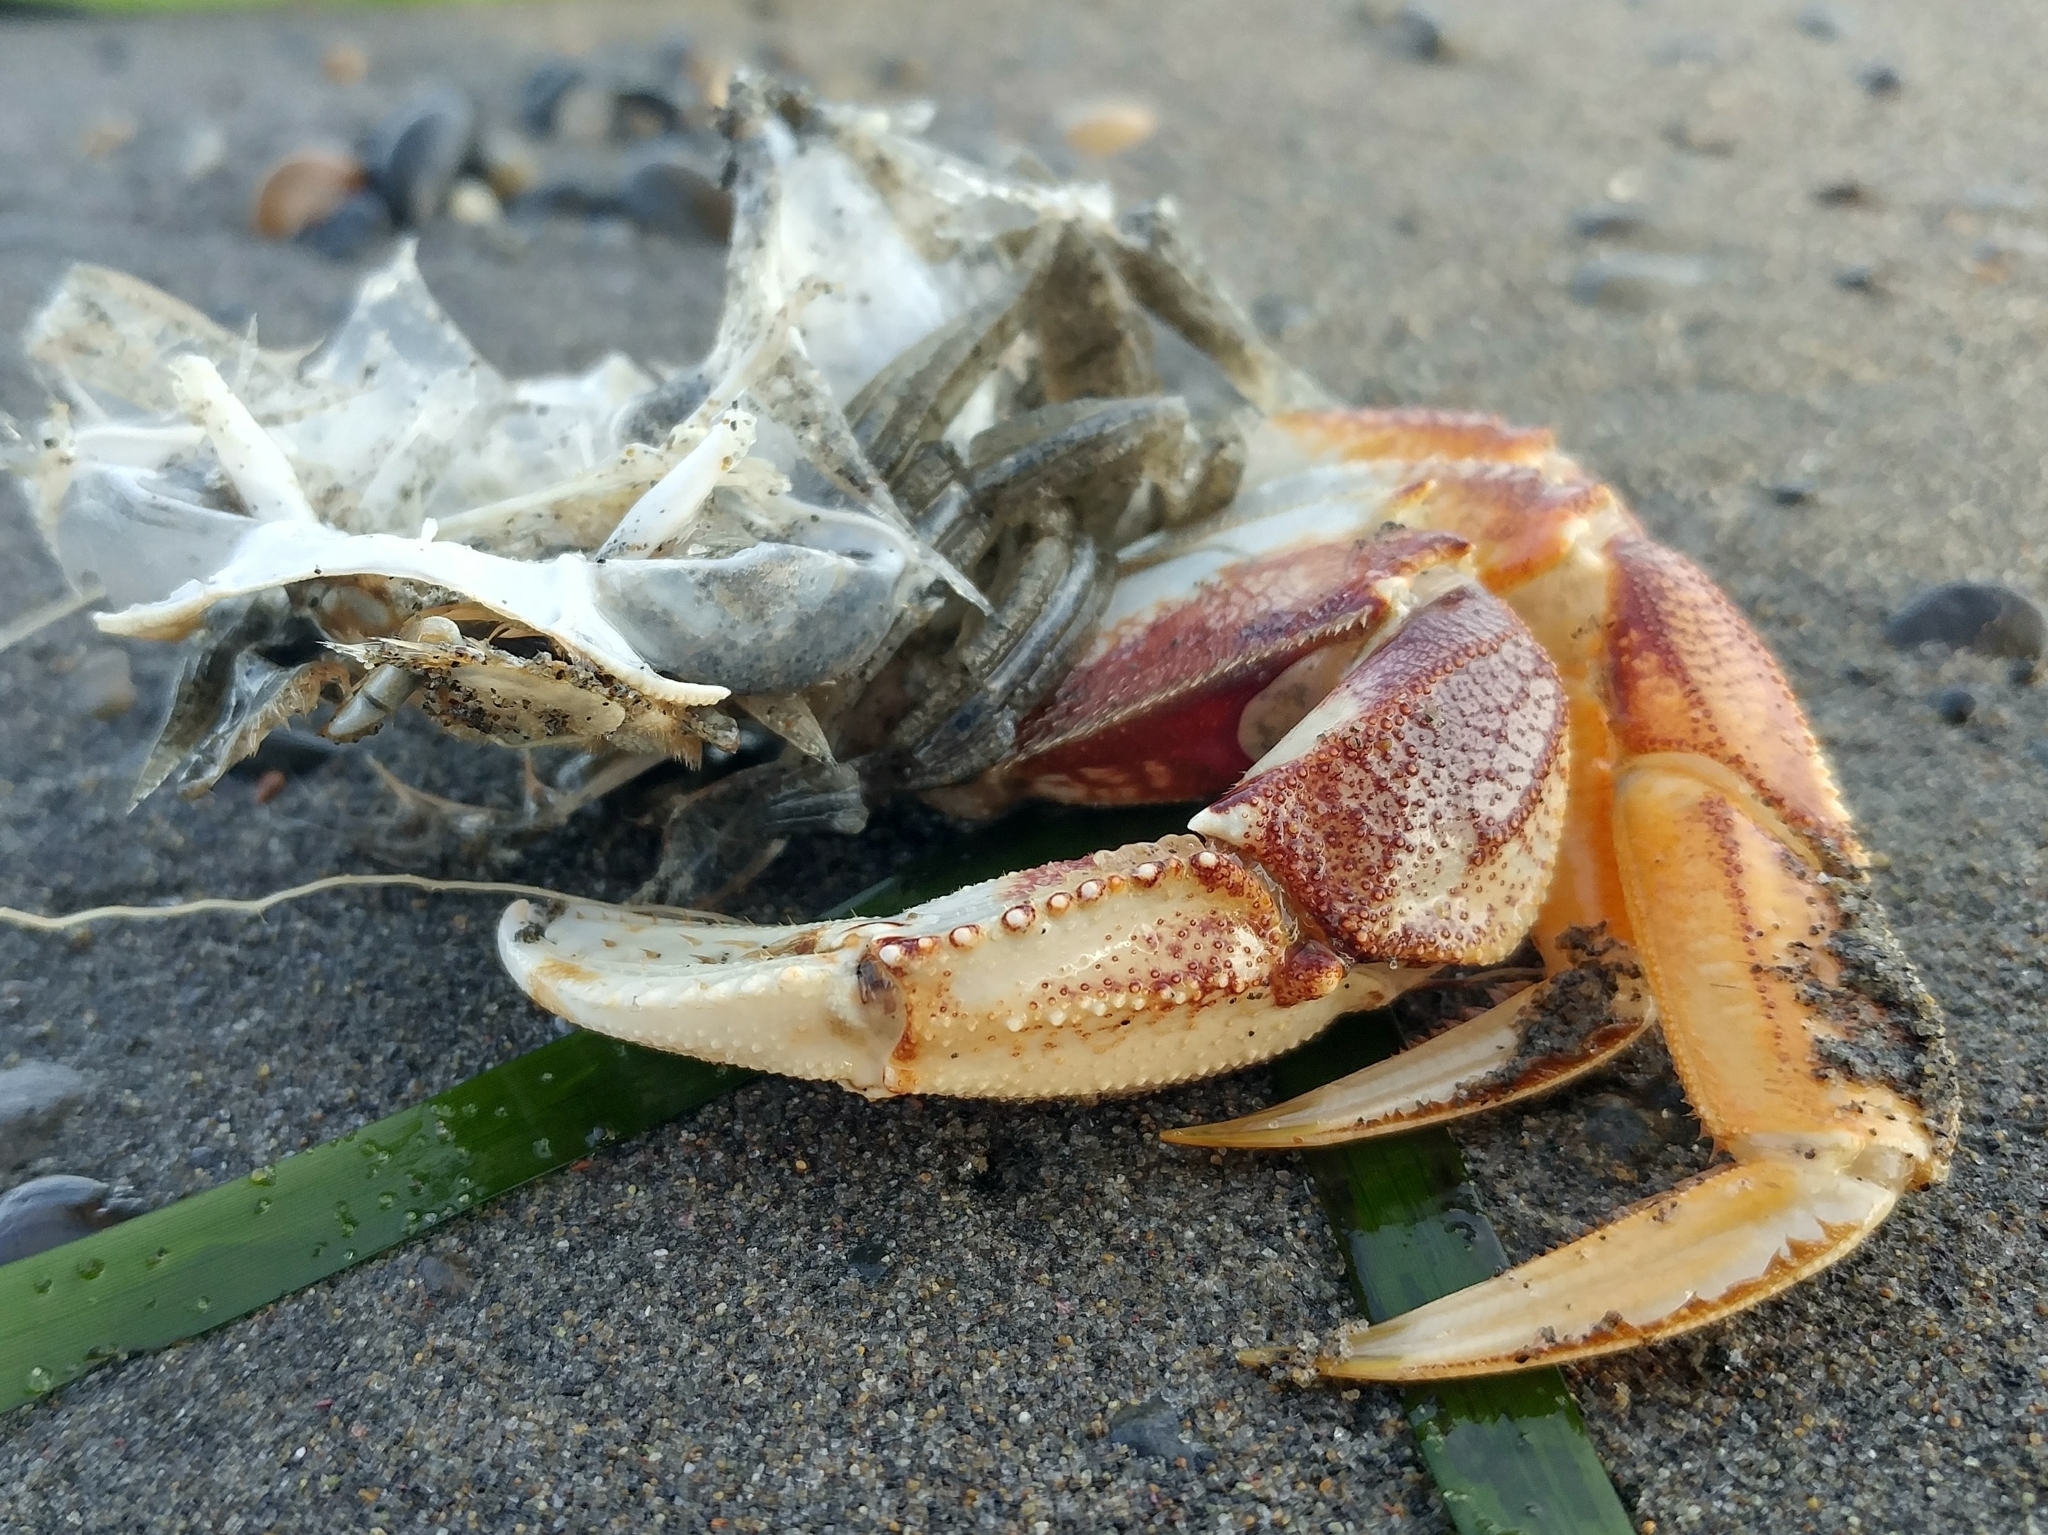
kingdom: Animalia
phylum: Arthropoda
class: Malacostraca
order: Decapoda
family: Cancridae
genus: Metacarcinus
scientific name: Metacarcinus magister
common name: Californian crab
